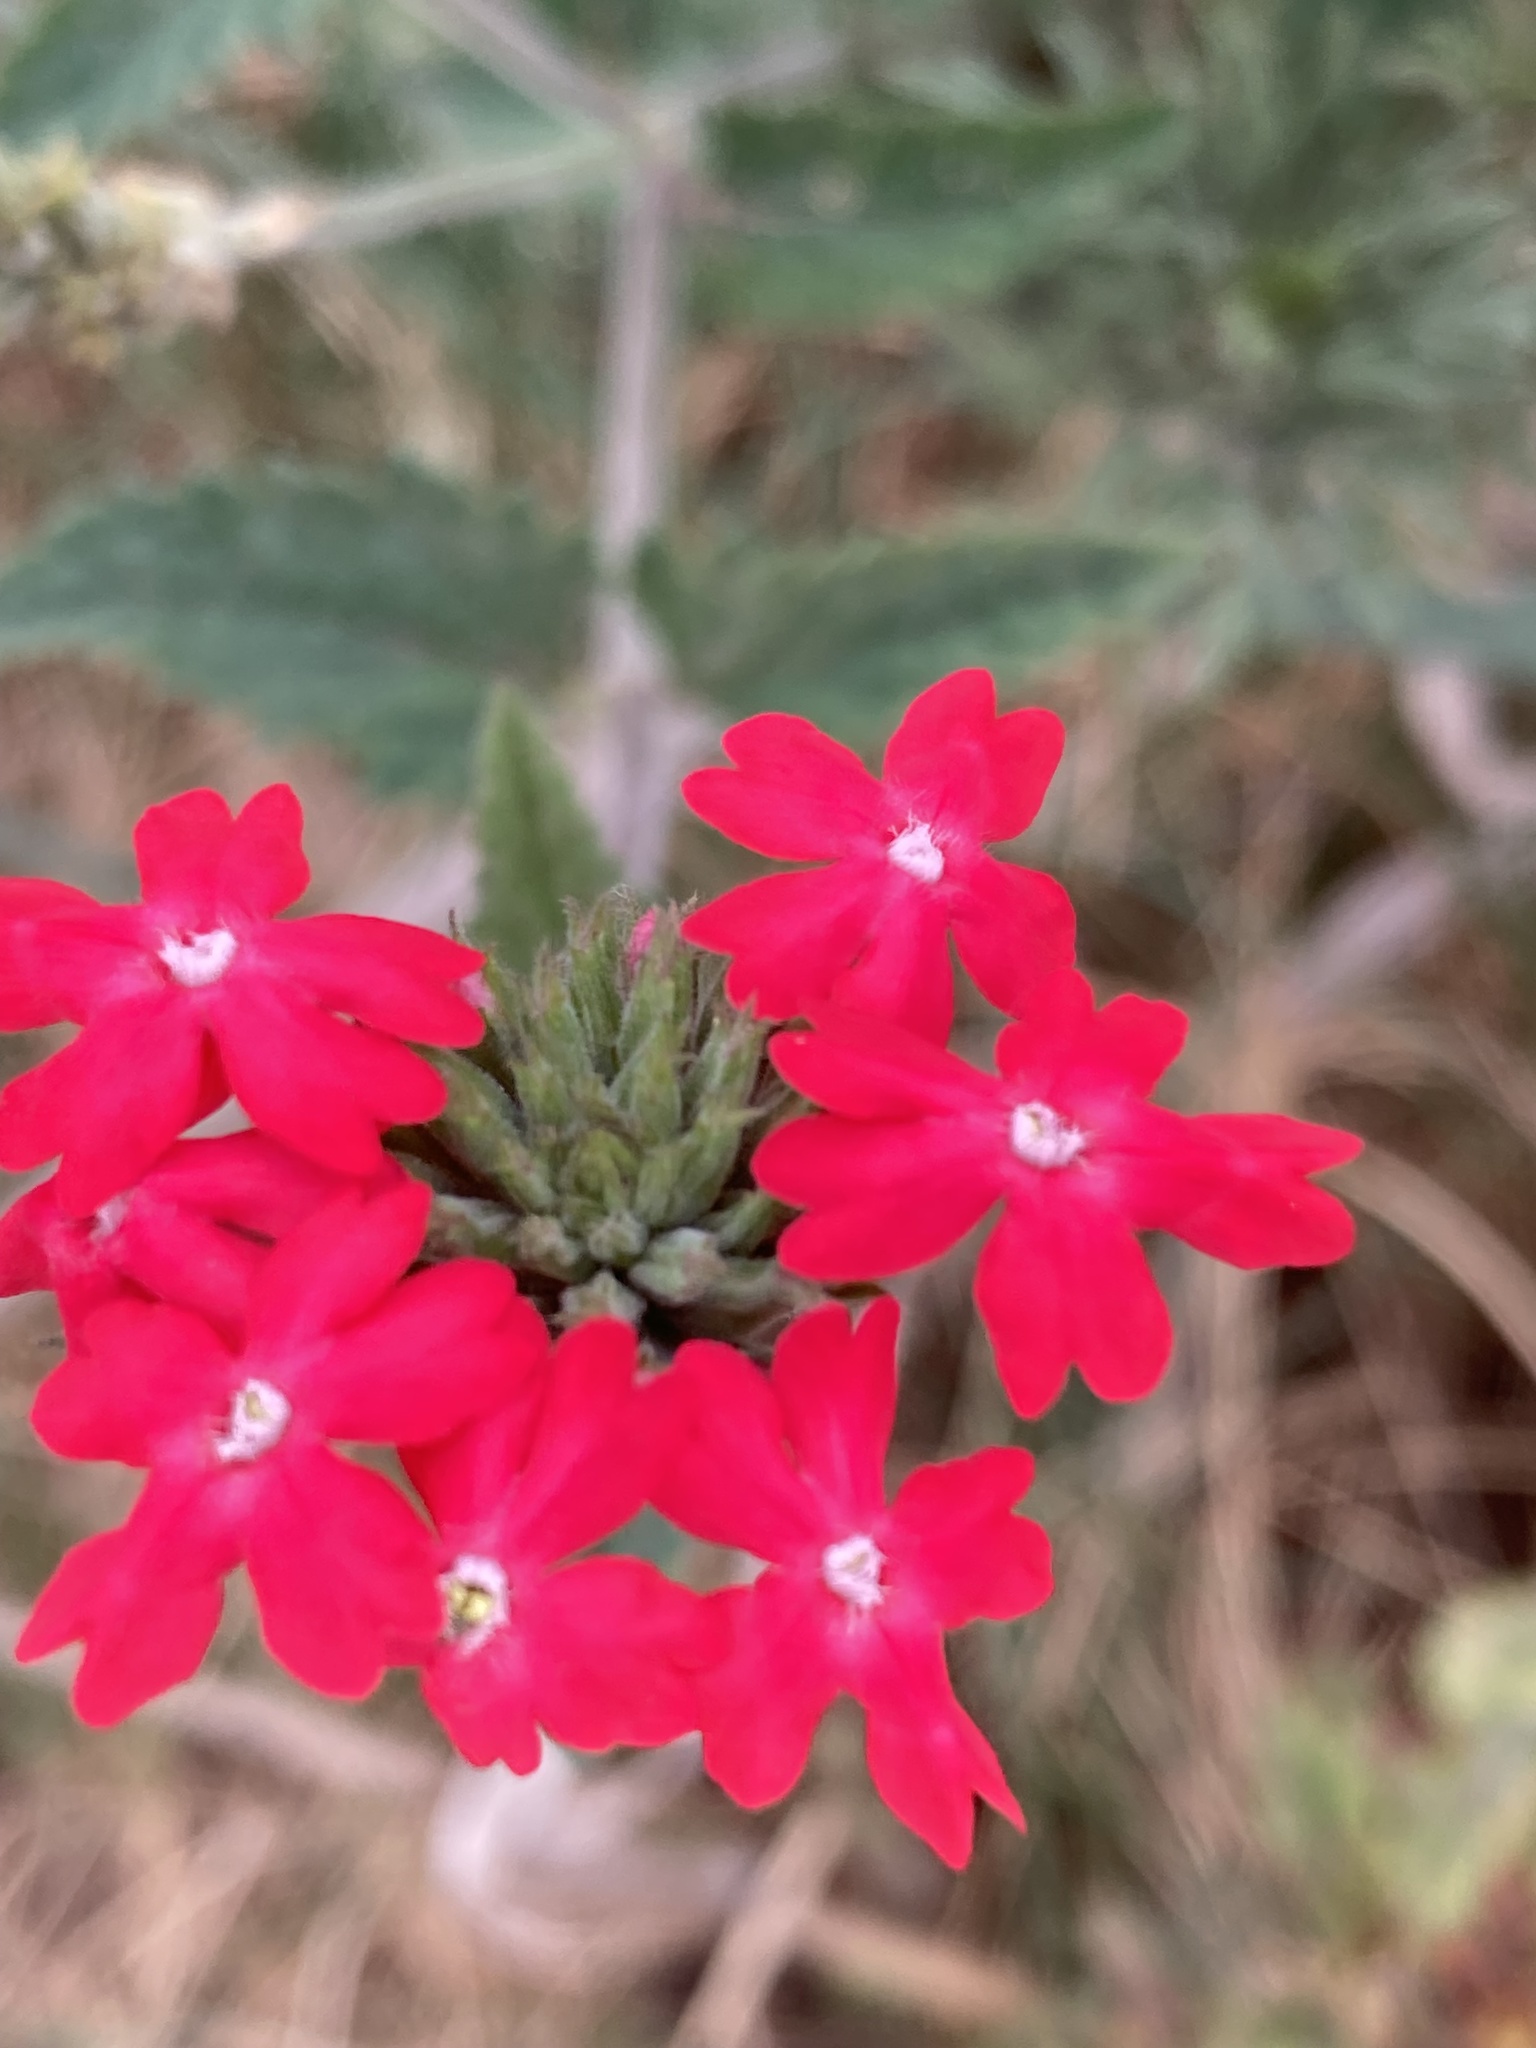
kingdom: Plantae
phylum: Tracheophyta
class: Magnoliopsida
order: Lamiales
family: Verbenaceae
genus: Verbena
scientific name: Verbena tweedieana
